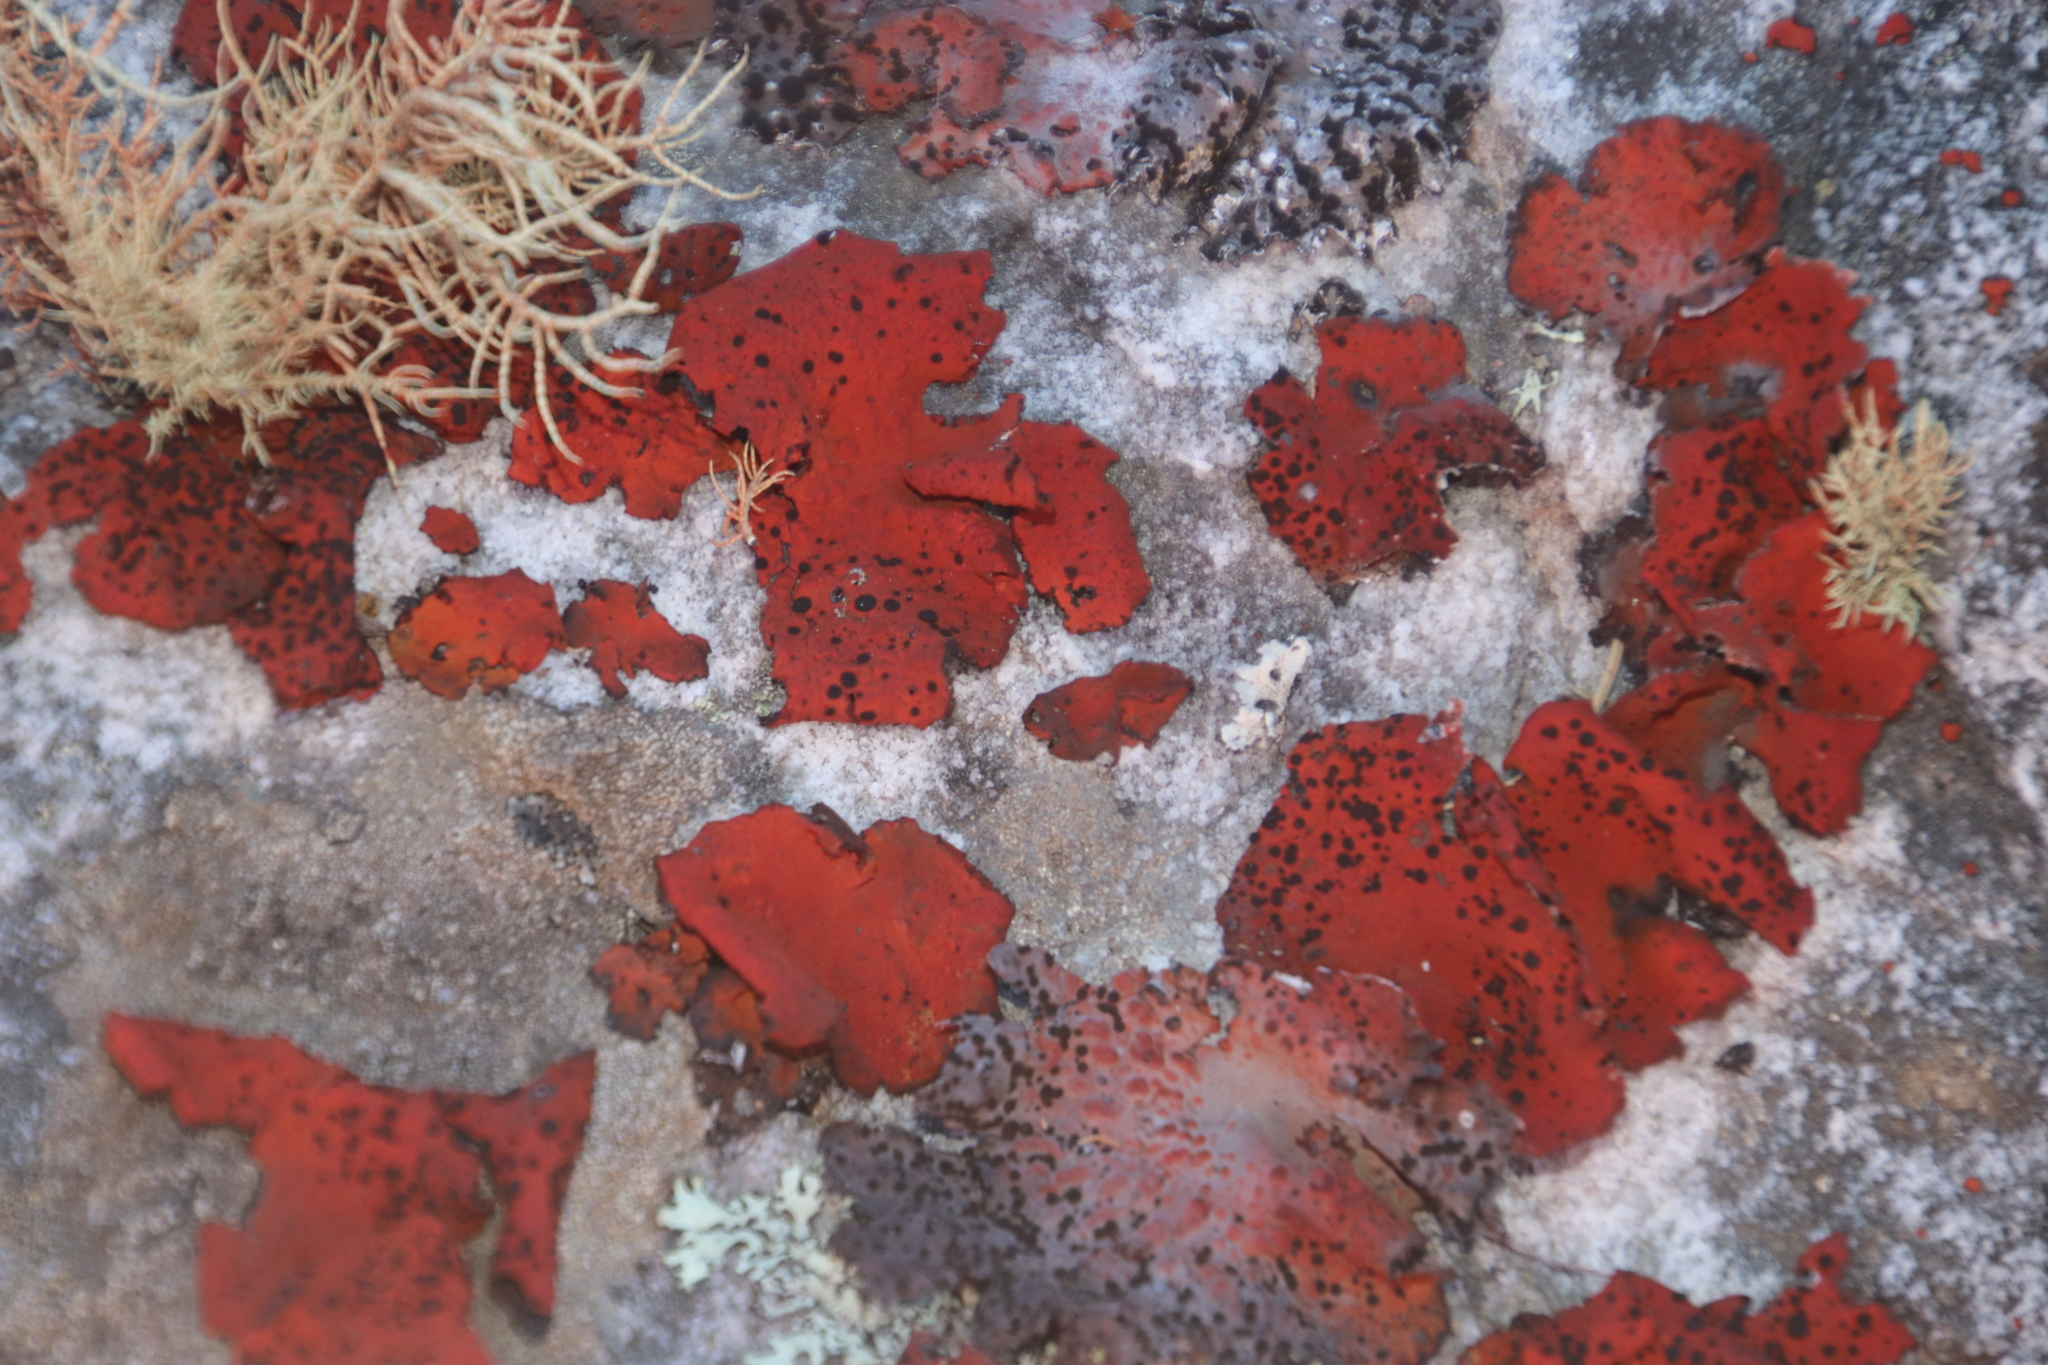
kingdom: Fungi
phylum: Ascomycota
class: Lecanoromycetes
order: Umbilicariales
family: Umbilicariaceae
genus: Lasallia
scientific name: Lasallia rubiginosa
